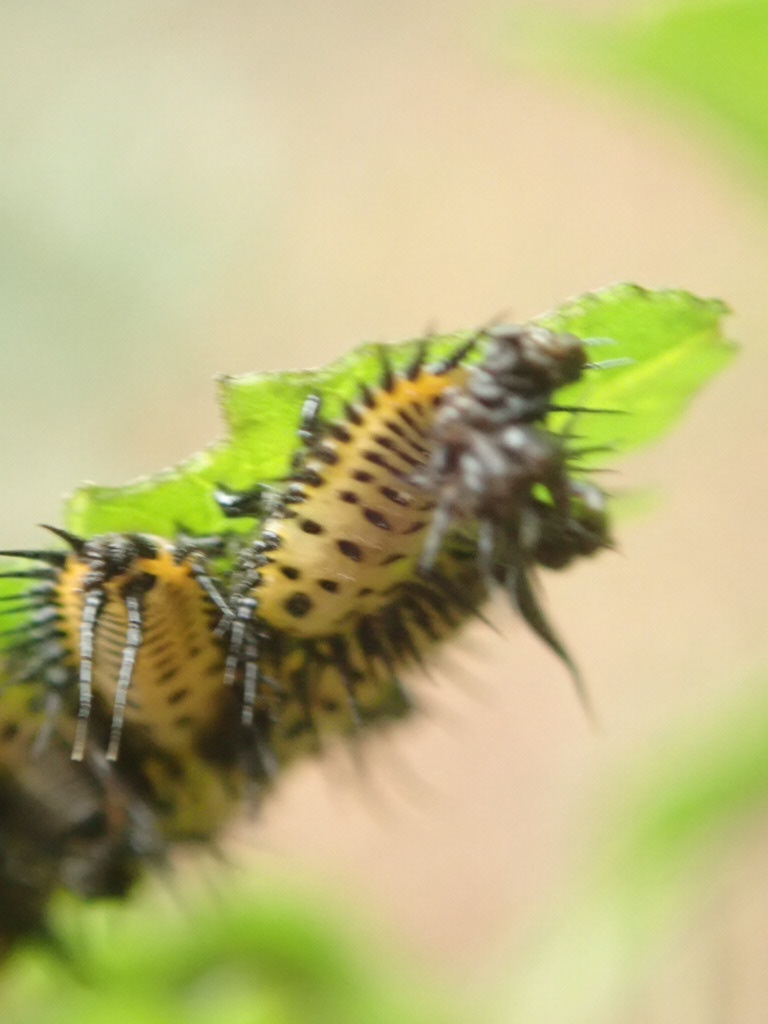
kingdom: Animalia
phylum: Arthropoda
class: Insecta
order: Coleoptera
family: Chrysomelidae
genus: Aspidimorpha
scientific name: Aspidimorpha miliaris
